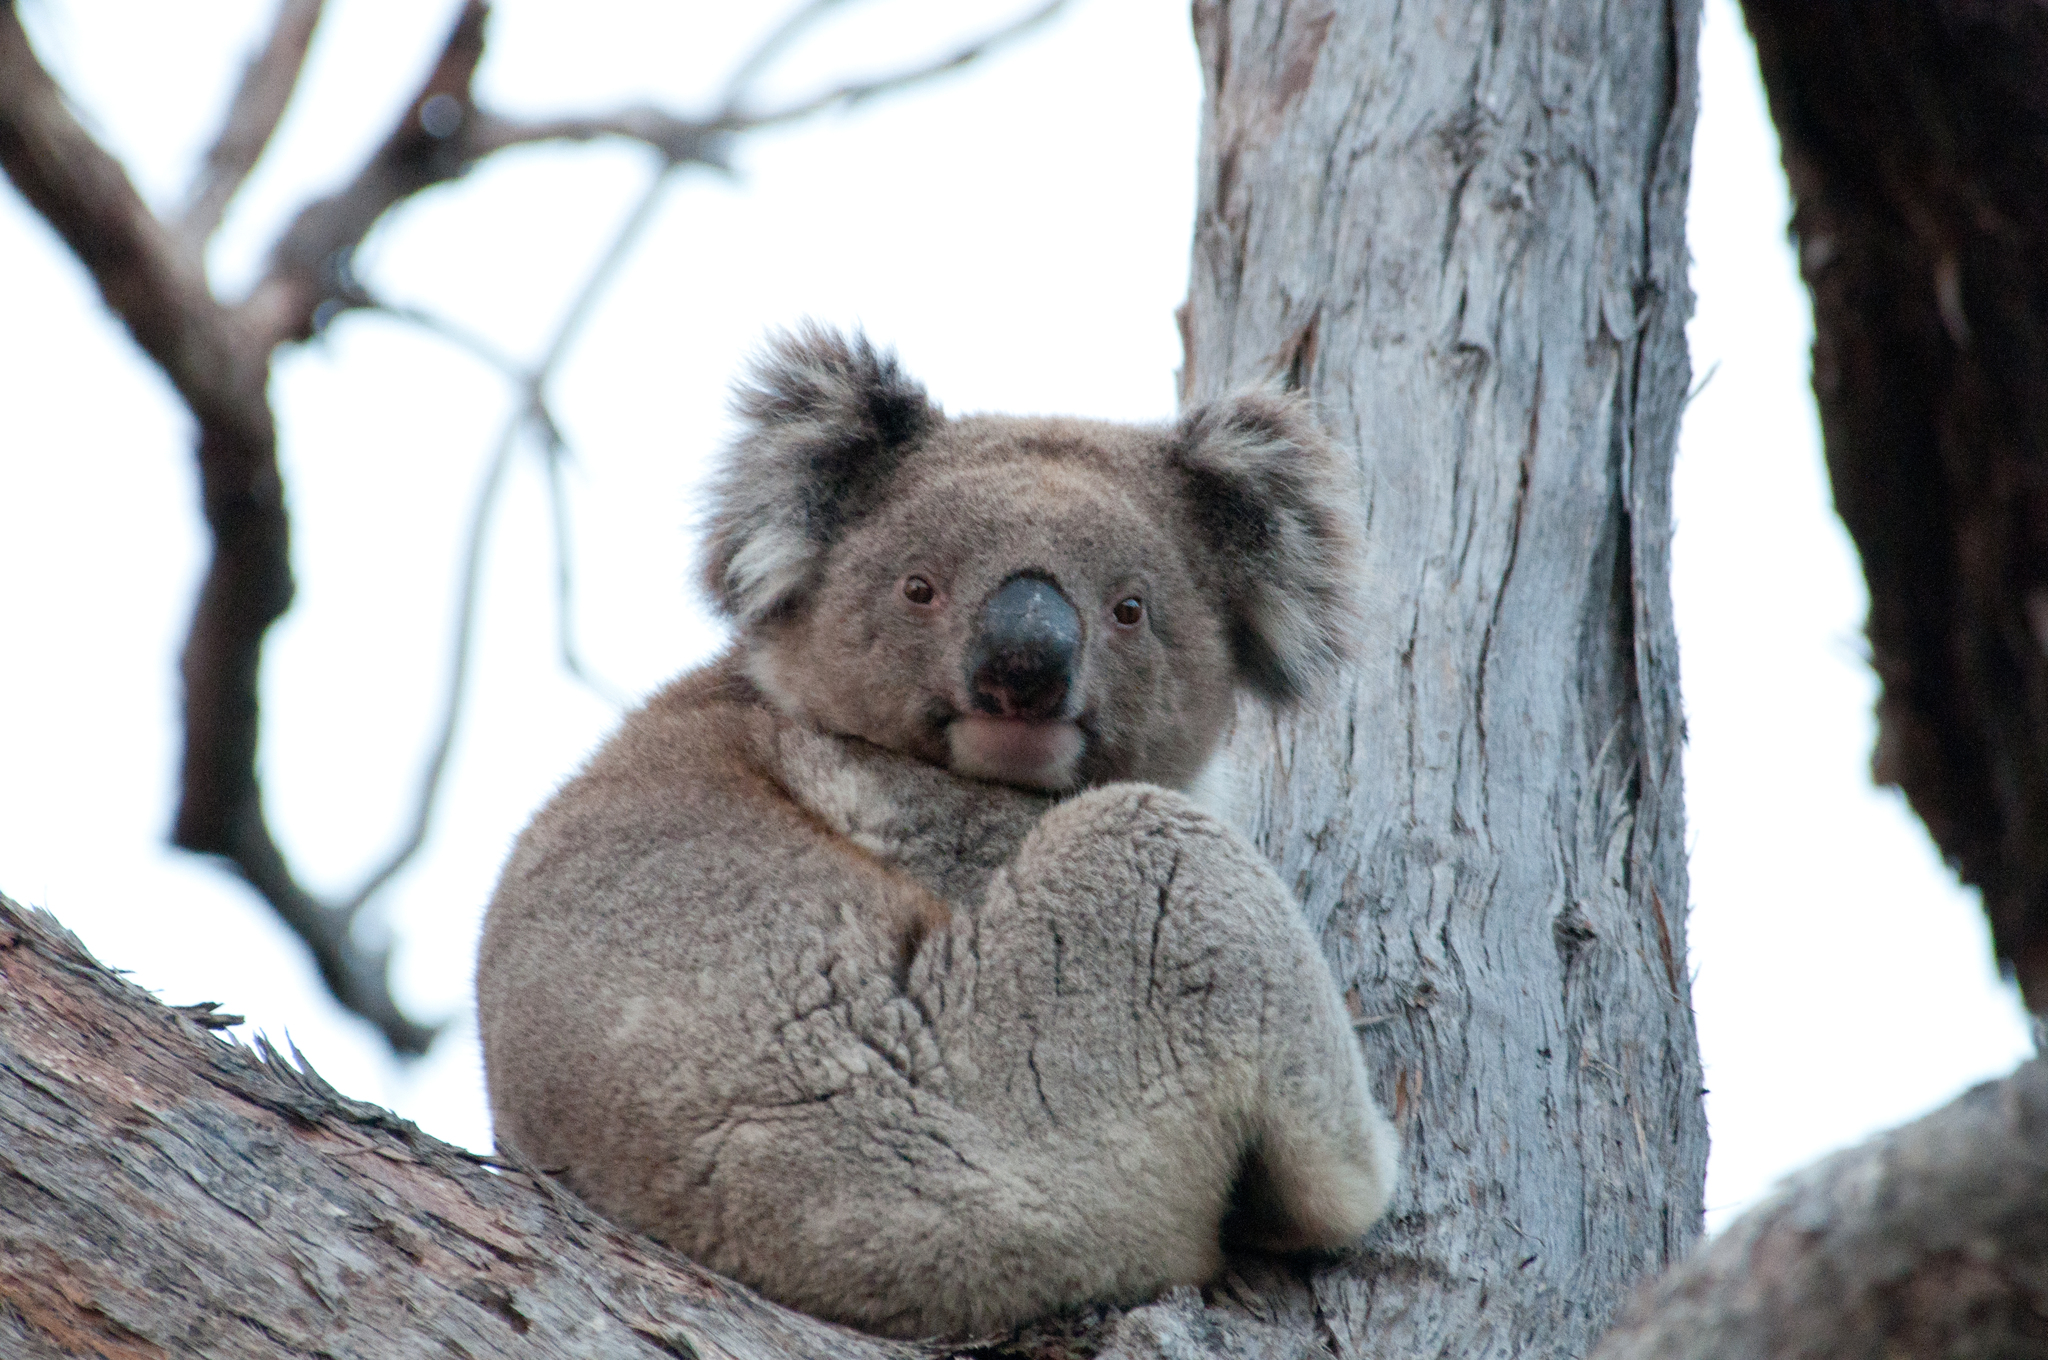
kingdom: Animalia
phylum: Chordata
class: Mammalia
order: Diprotodontia
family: Phascolarctidae
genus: Phascolarctos
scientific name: Phascolarctos cinereus
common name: Koala
